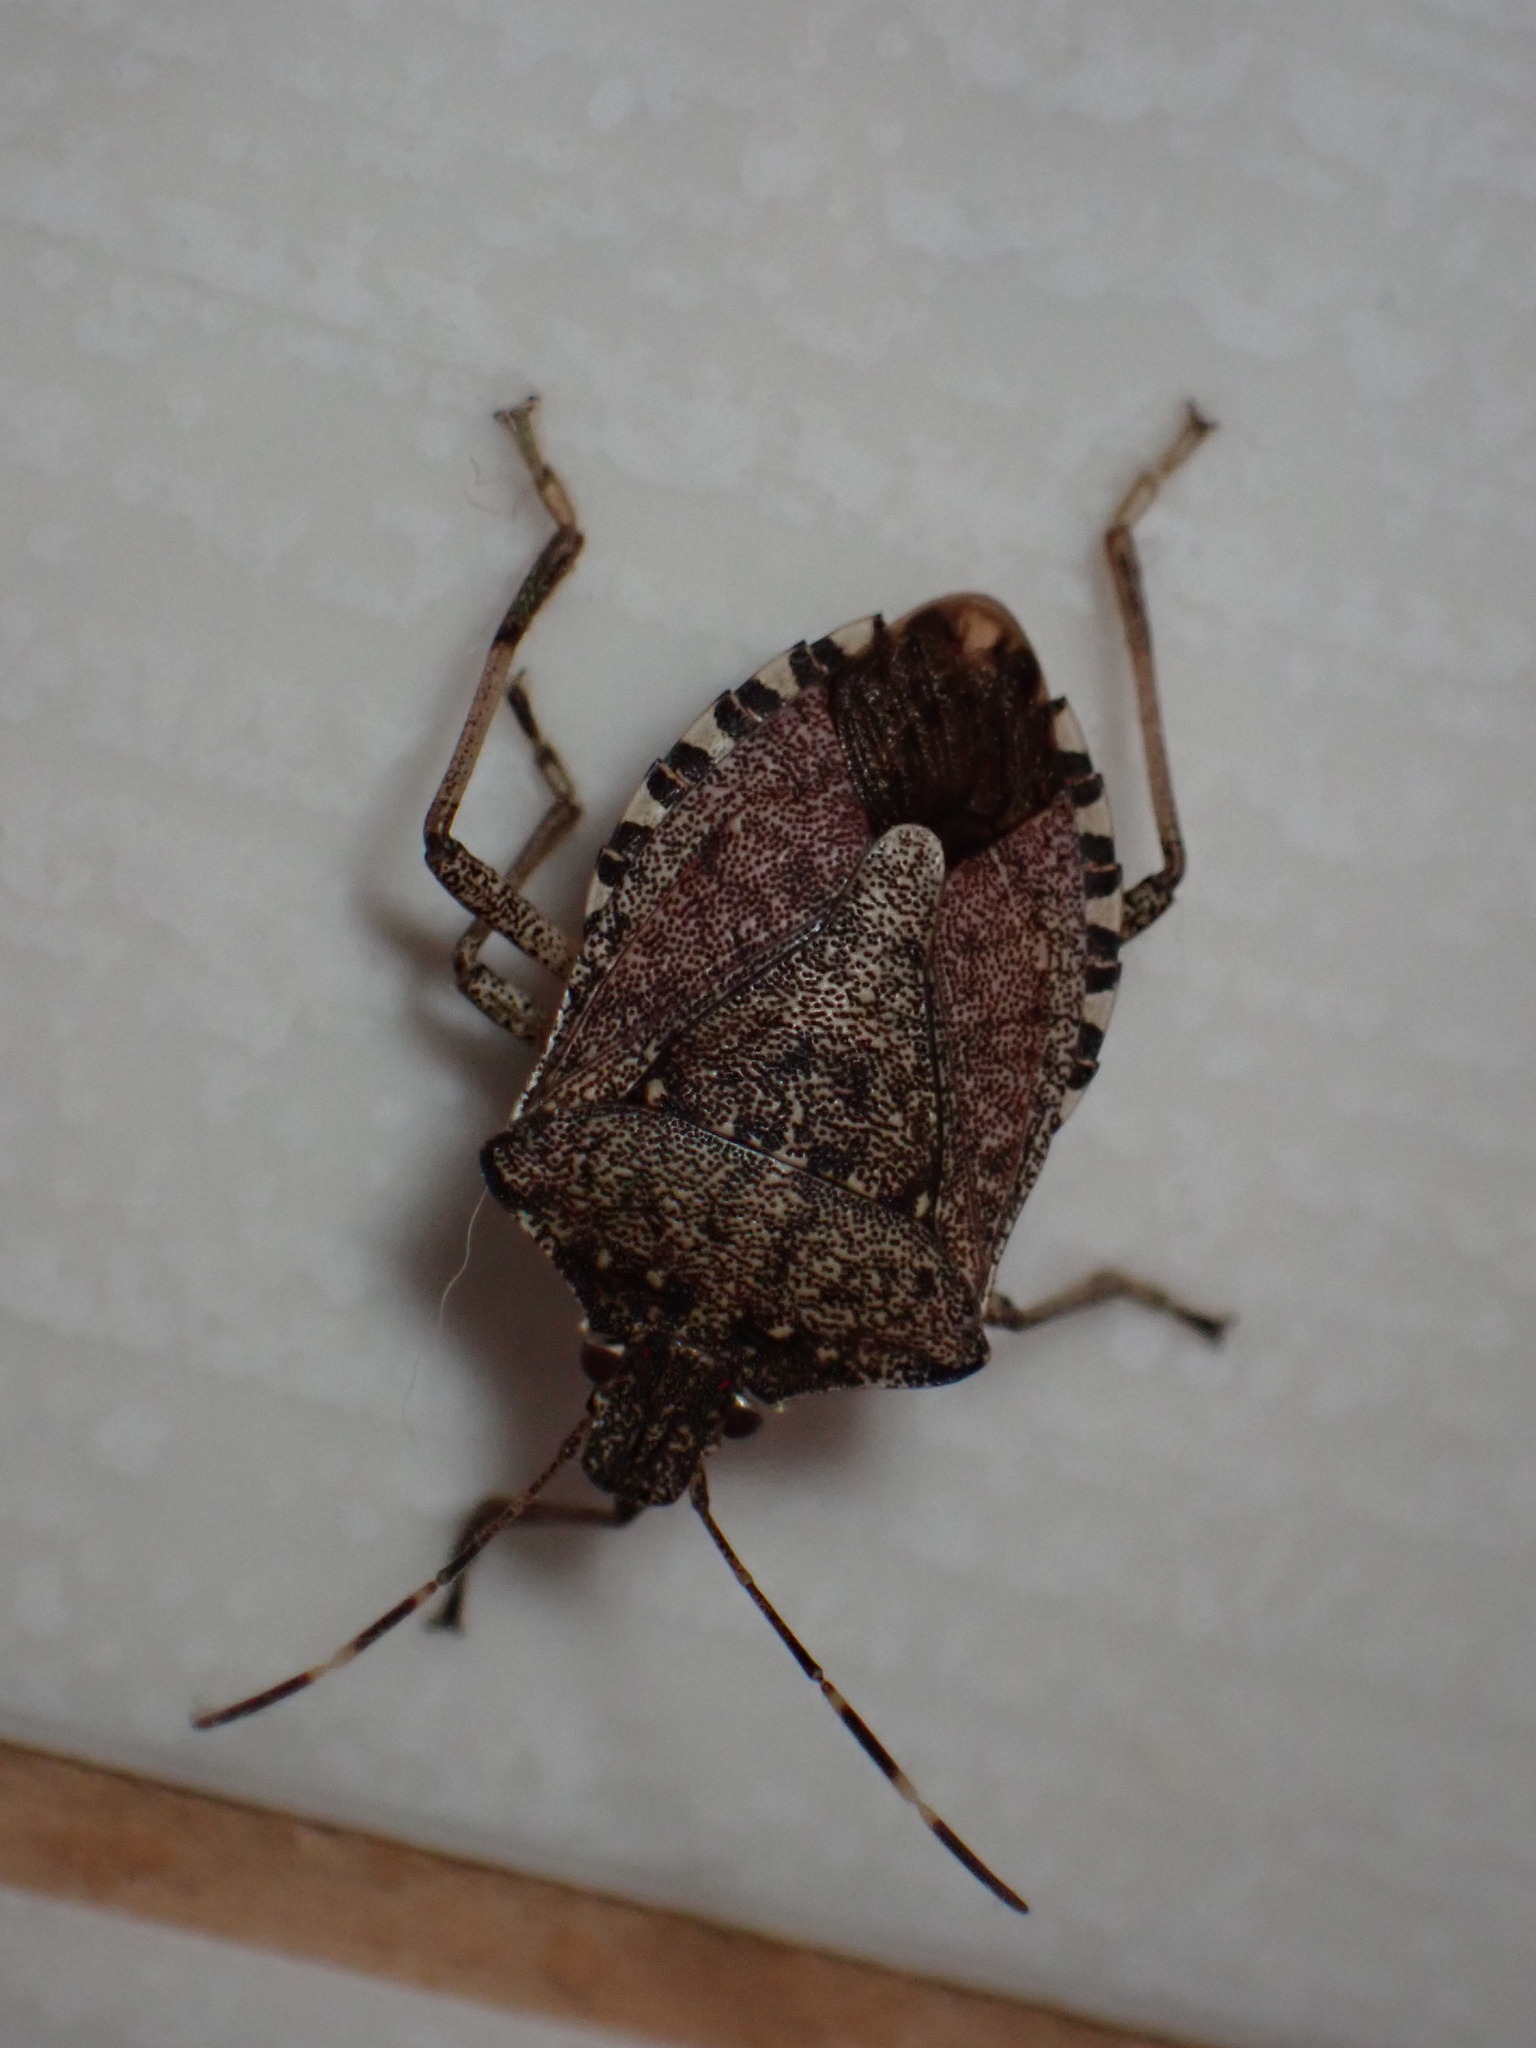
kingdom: Animalia
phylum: Arthropoda
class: Insecta
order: Hemiptera
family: Pentatomidae
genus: Halyomorpha
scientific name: Halyomorpha halys
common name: Brown marmorated stink bug
